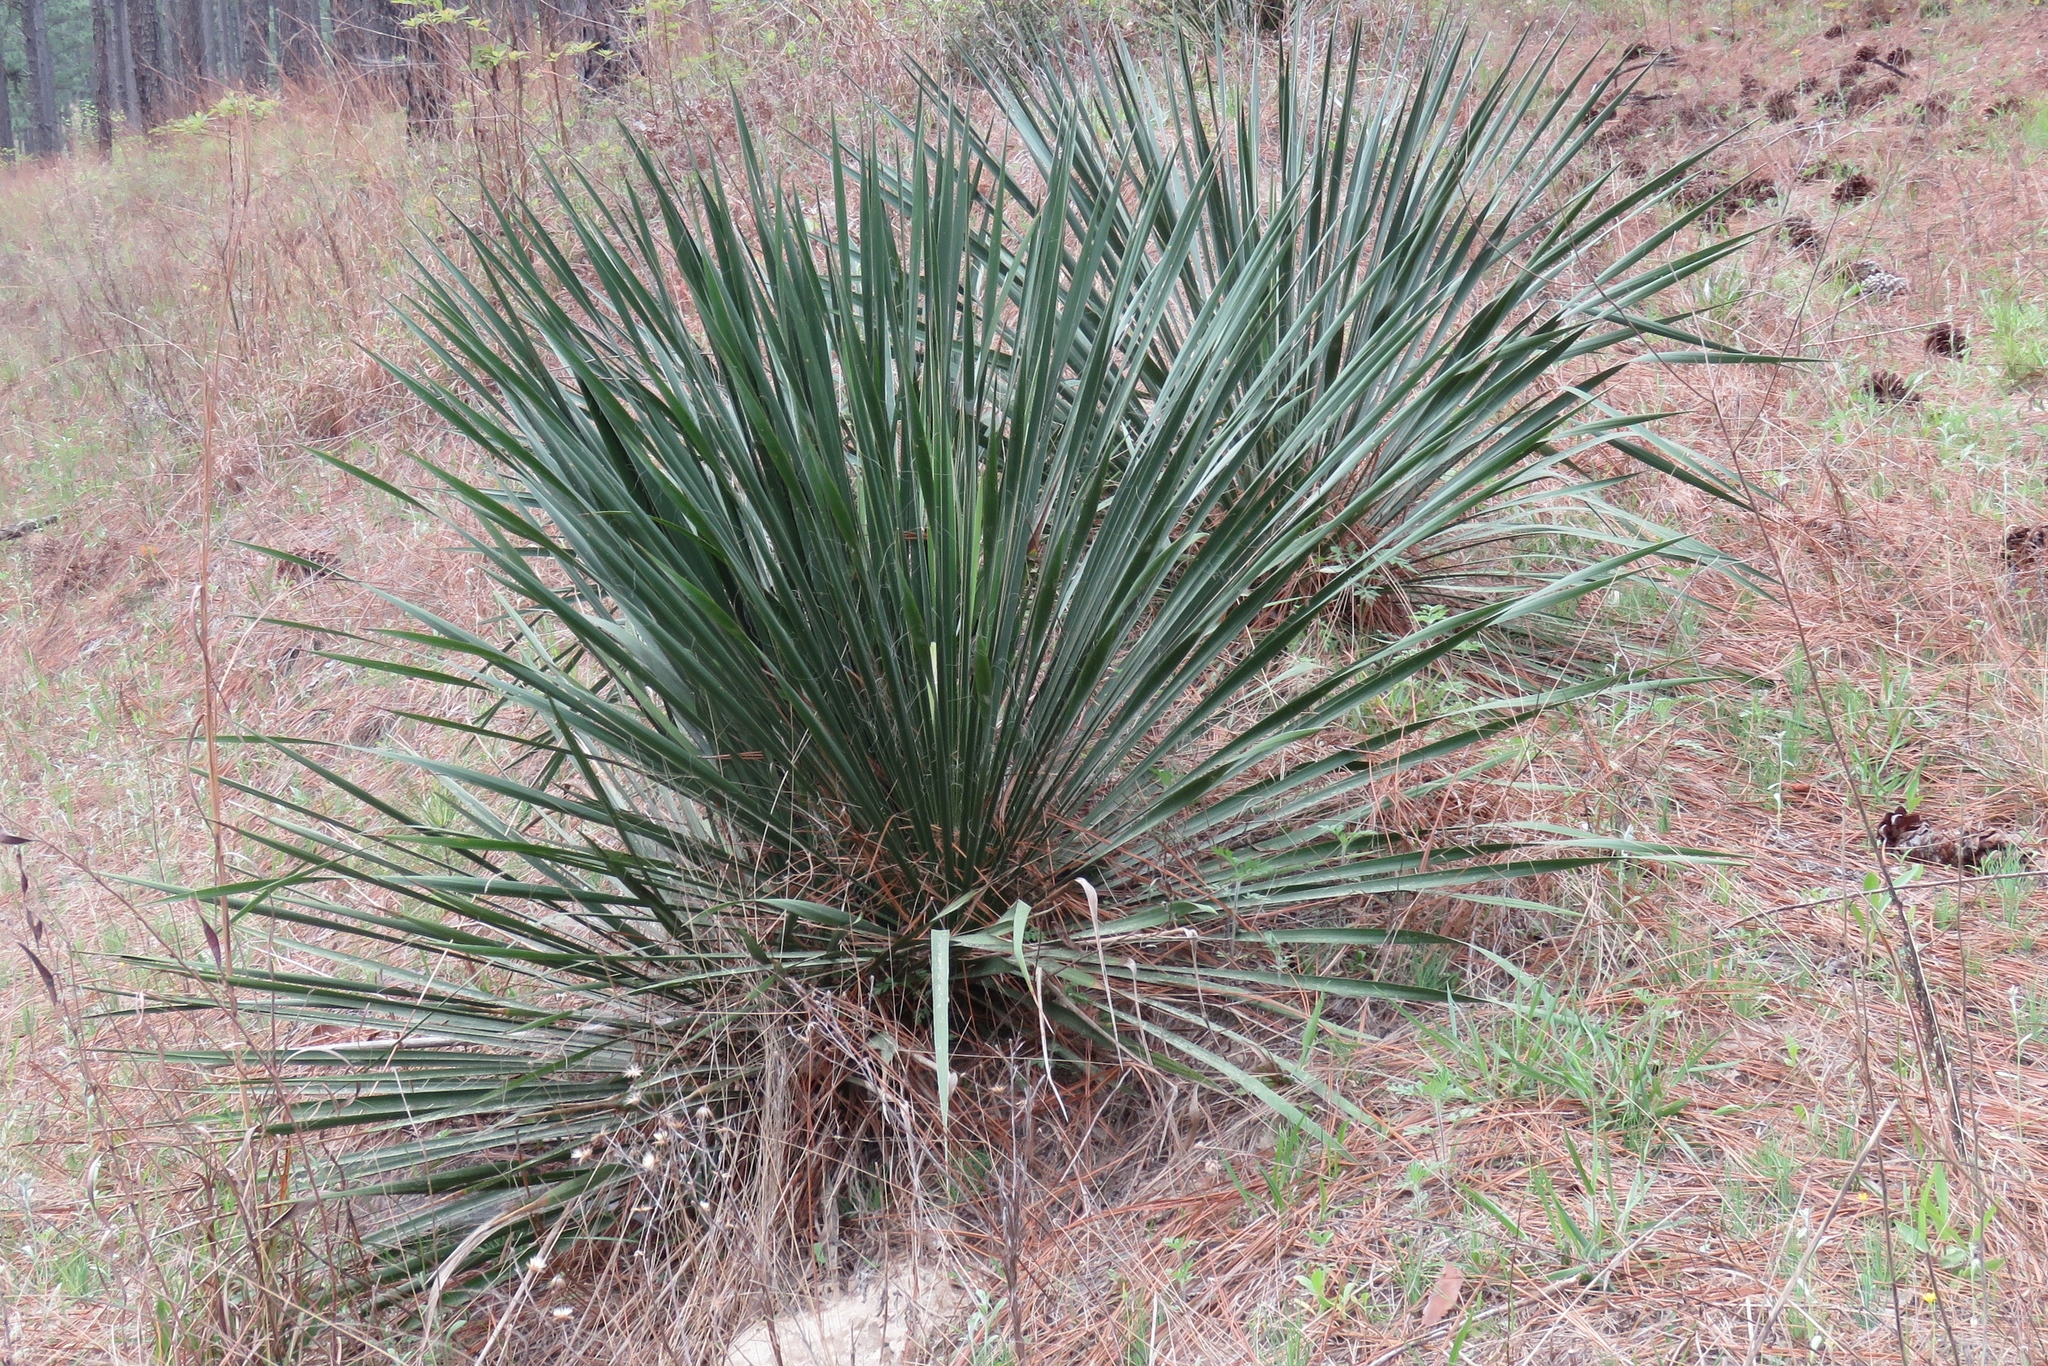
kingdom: Plantae
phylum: Tracheophyta
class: Liliopsida
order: Asparagales
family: Asparagaceae
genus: Yucca
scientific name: Yucca arkansana
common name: Arkansas yucca
